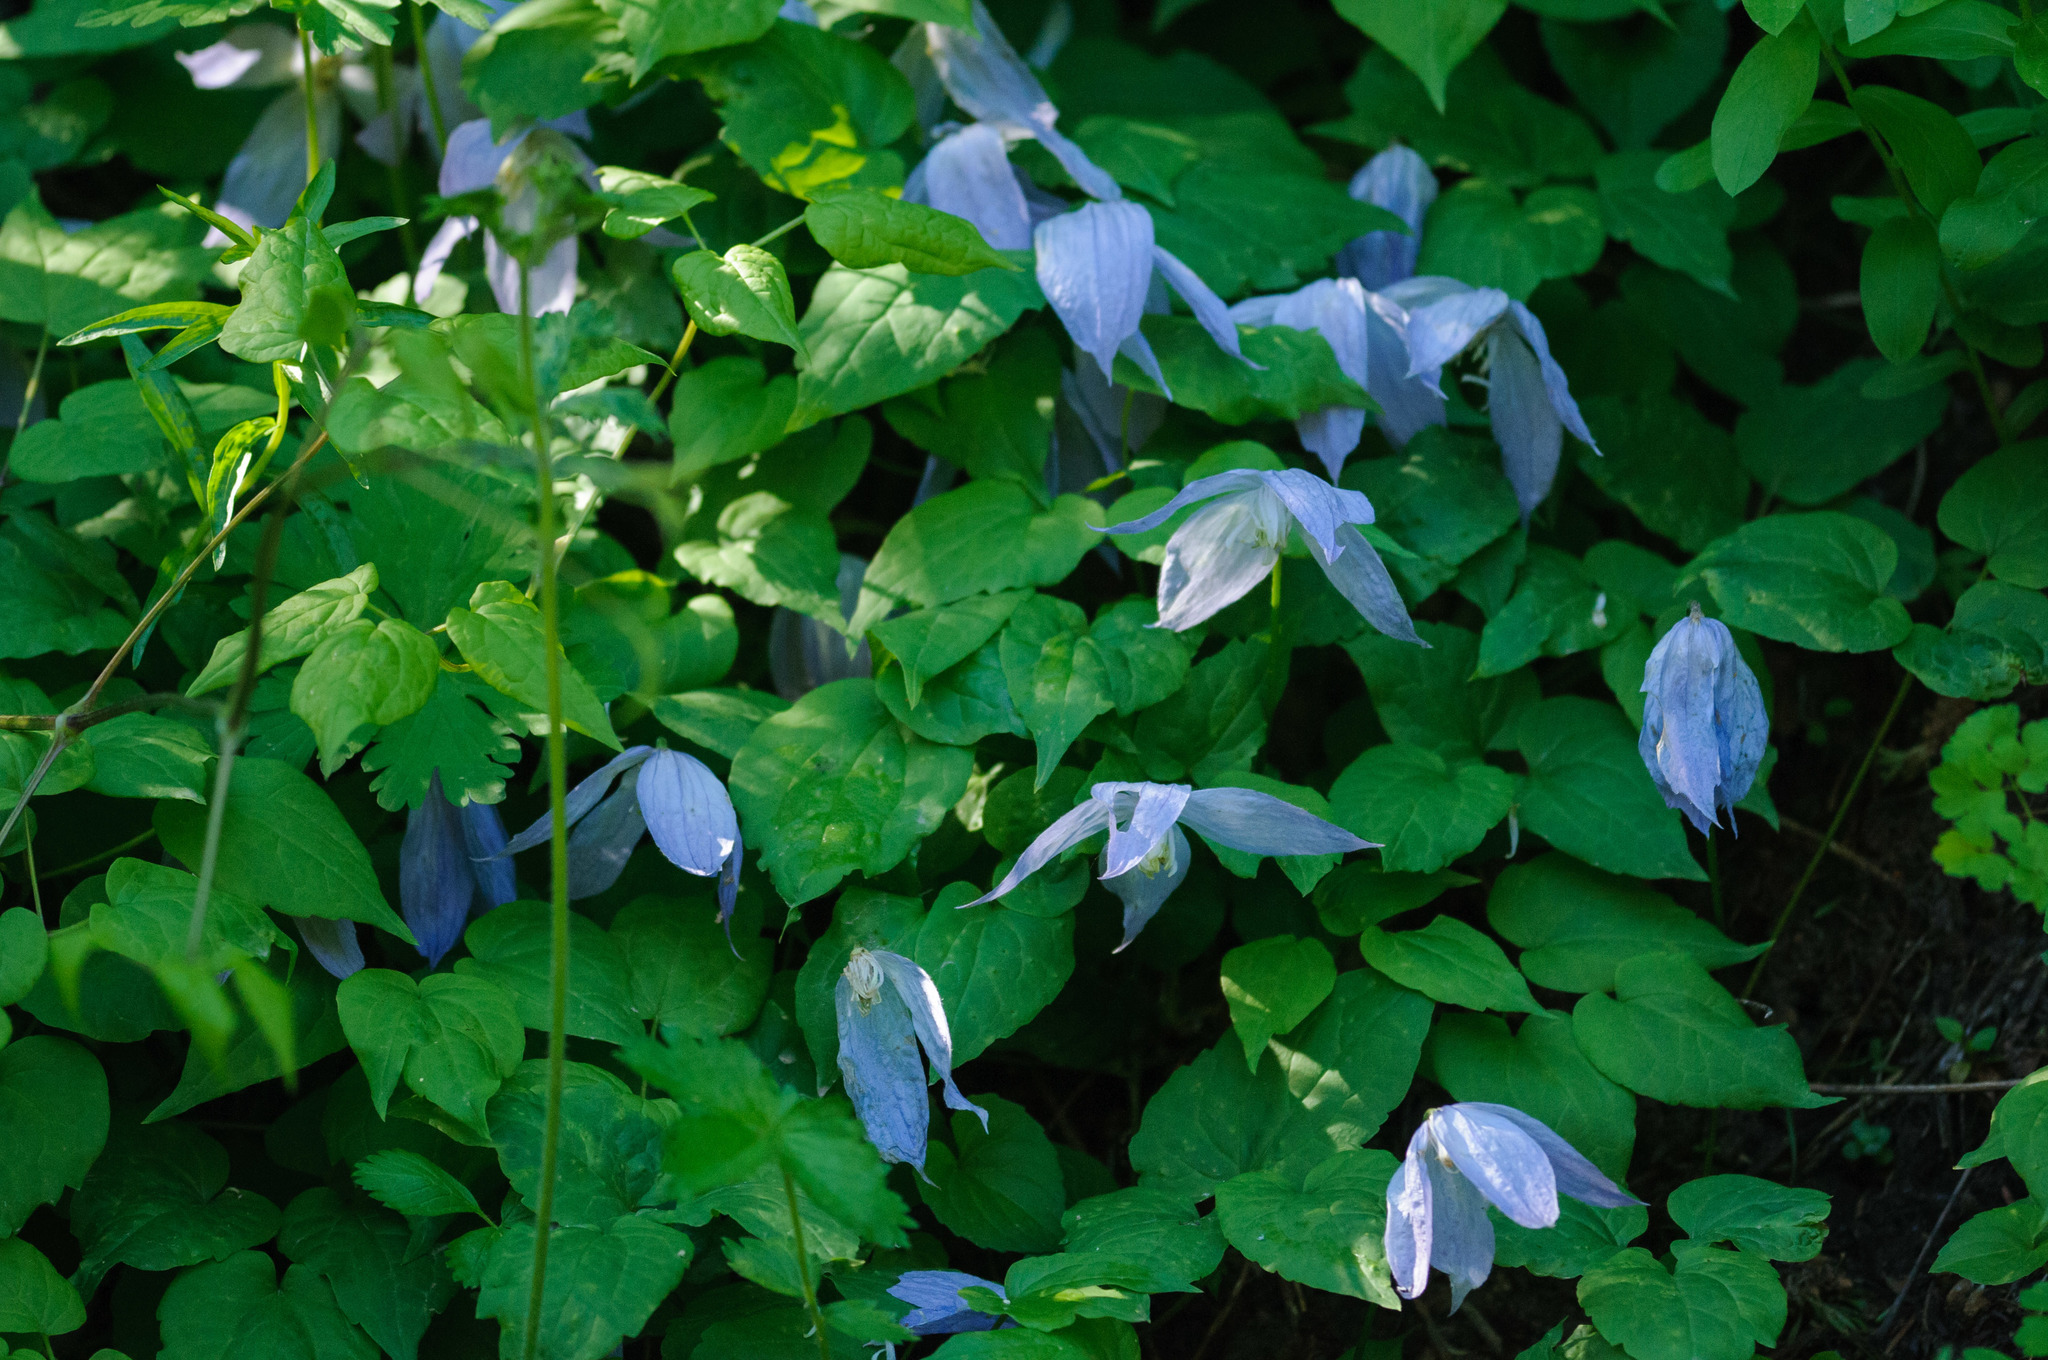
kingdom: Plantae
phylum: Tracheophyta
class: Magnoliopsida
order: Ranunculales
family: Ranunculaceae
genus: Clematis
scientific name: Clematis occidentalis
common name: Purple clematis
